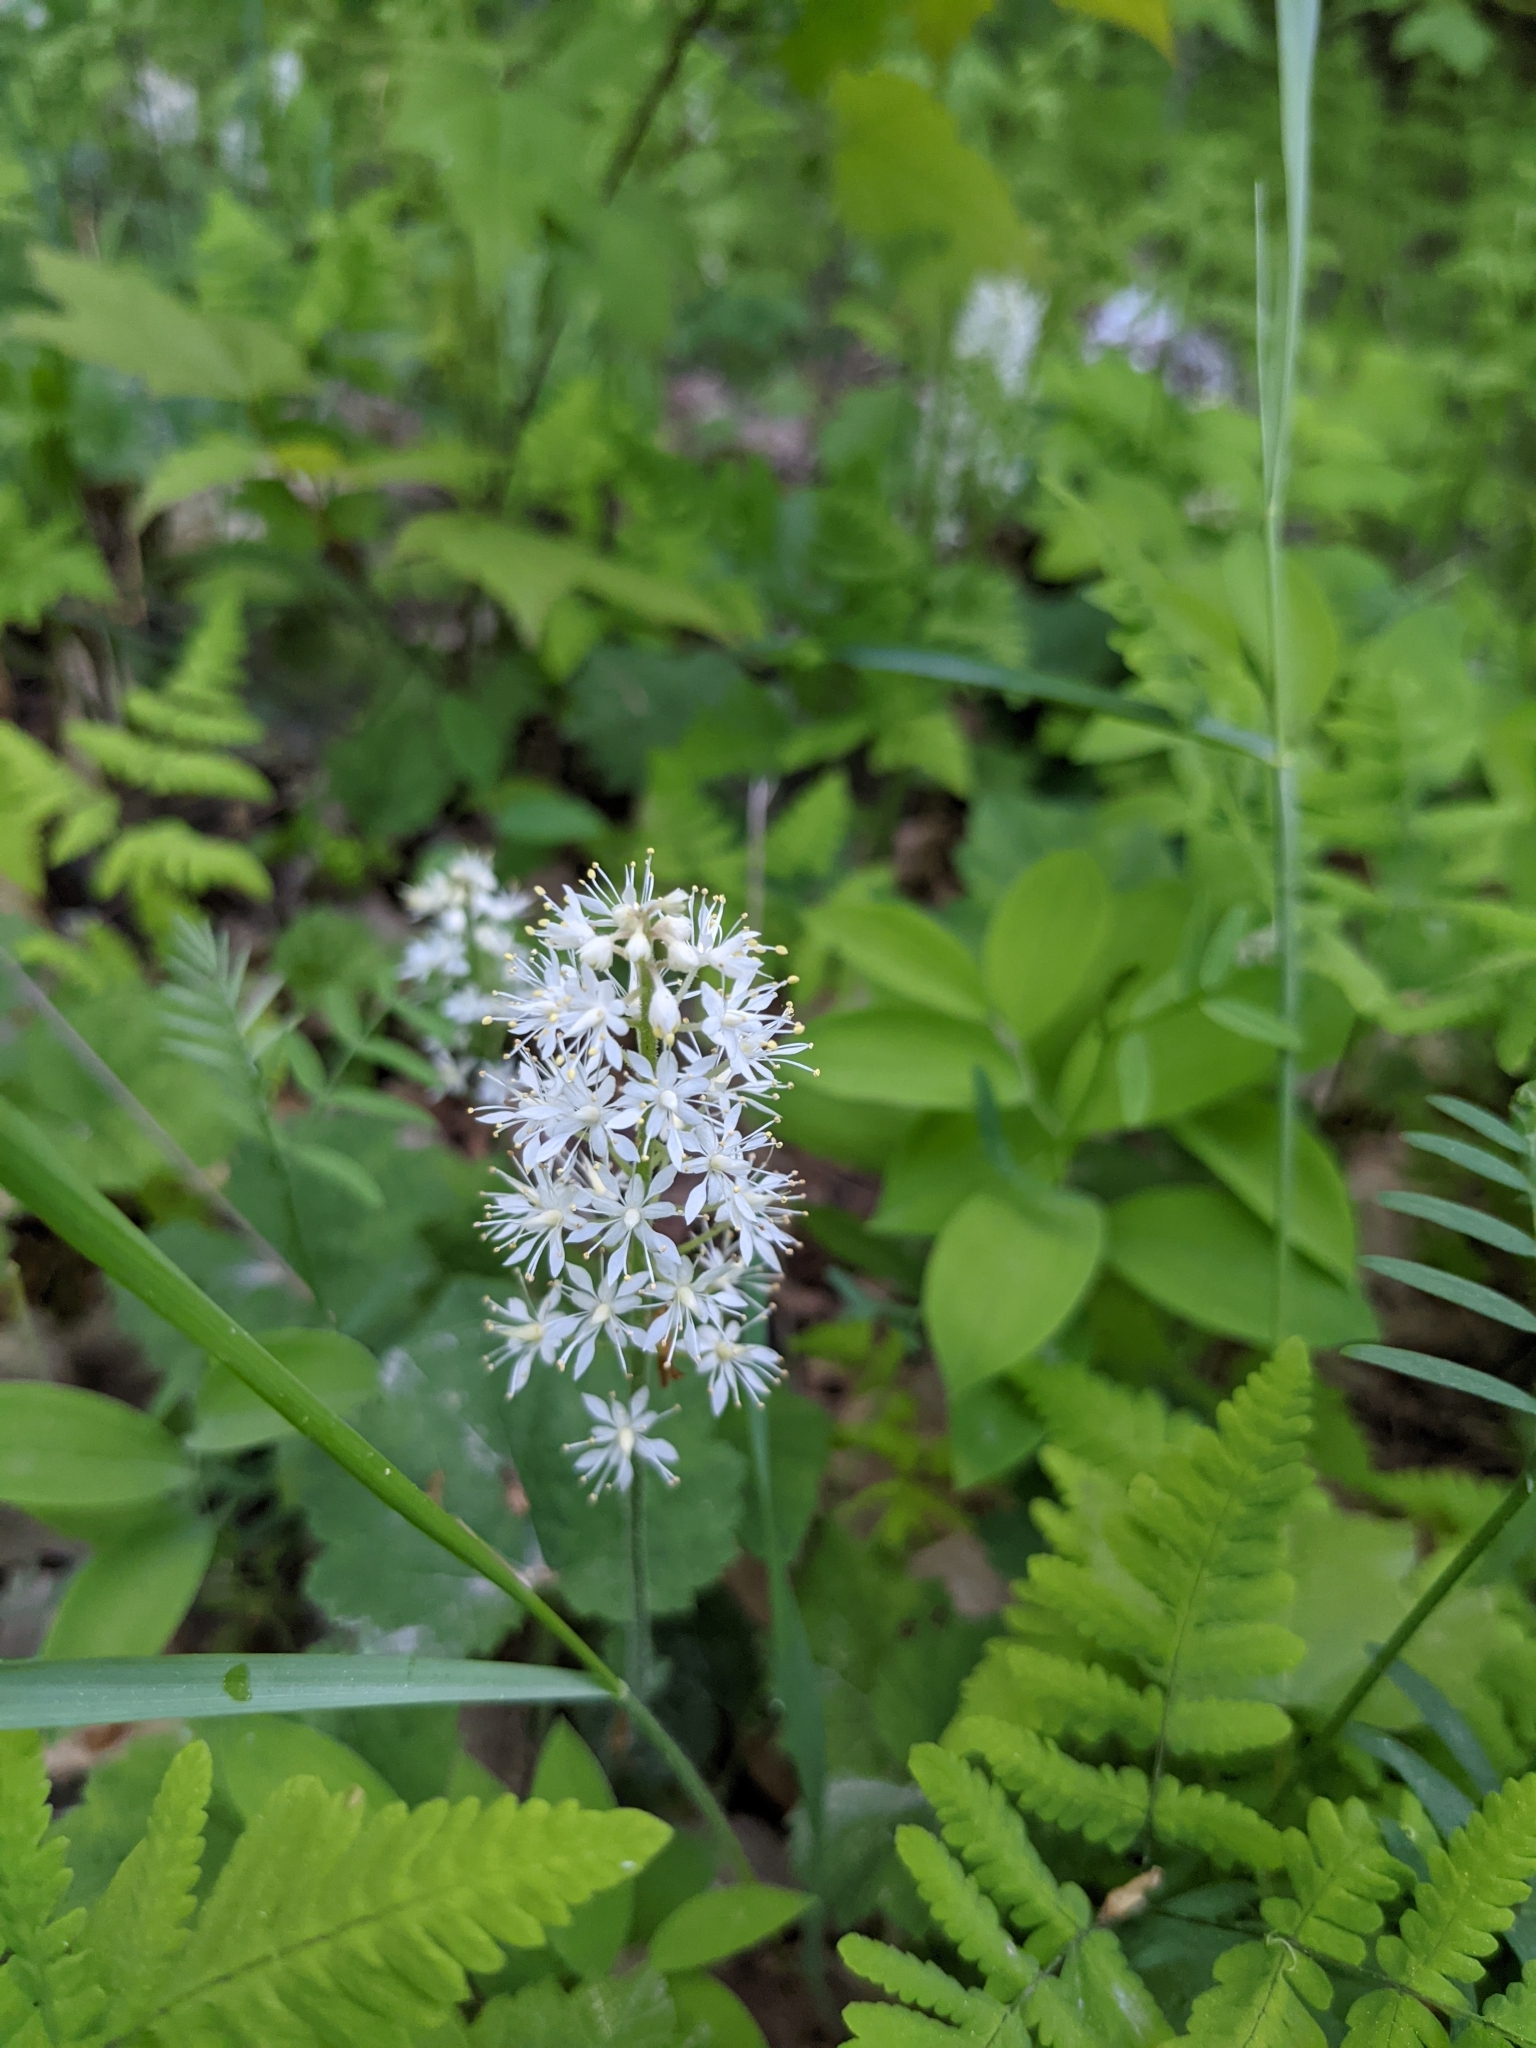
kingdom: Plantae
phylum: Tracheophyta
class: Magnoliopsida
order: Saxifragales
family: Saxifragaceae
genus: Tiarella
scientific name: Tiarella stolonifera
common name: Stoloniferous foamflower
